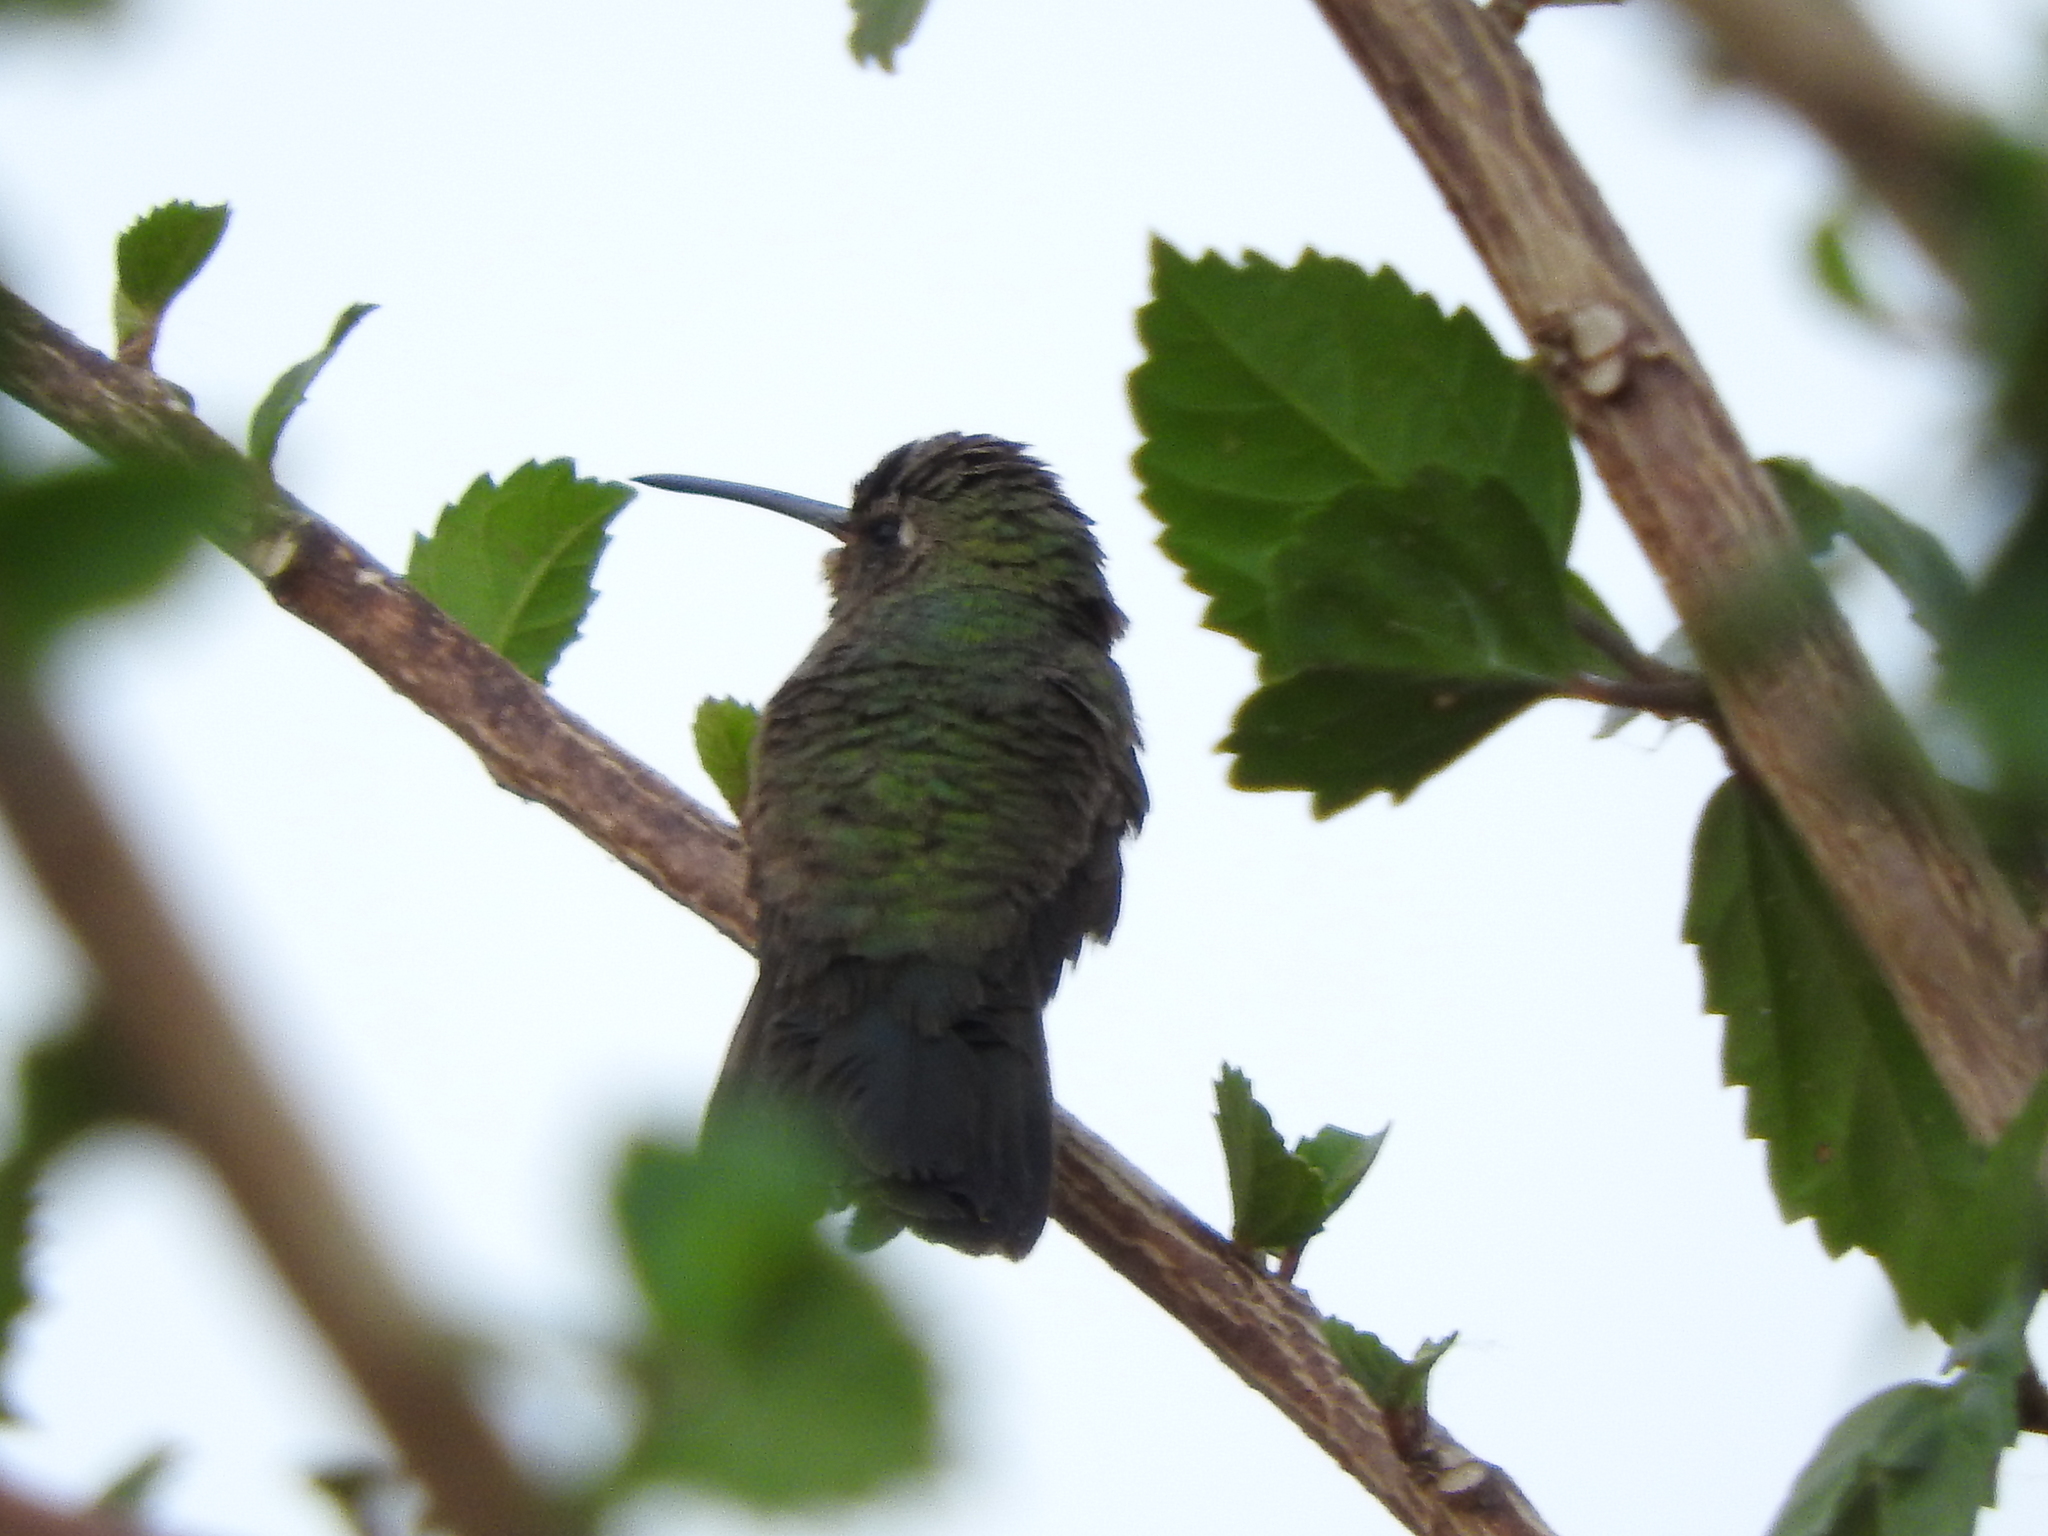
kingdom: Animalia
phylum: Chordata
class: Aves
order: Apodiformes
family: Trochilidae
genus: Cynanthus
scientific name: Cynanthus latirostris
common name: Broad-billed hummingbird
